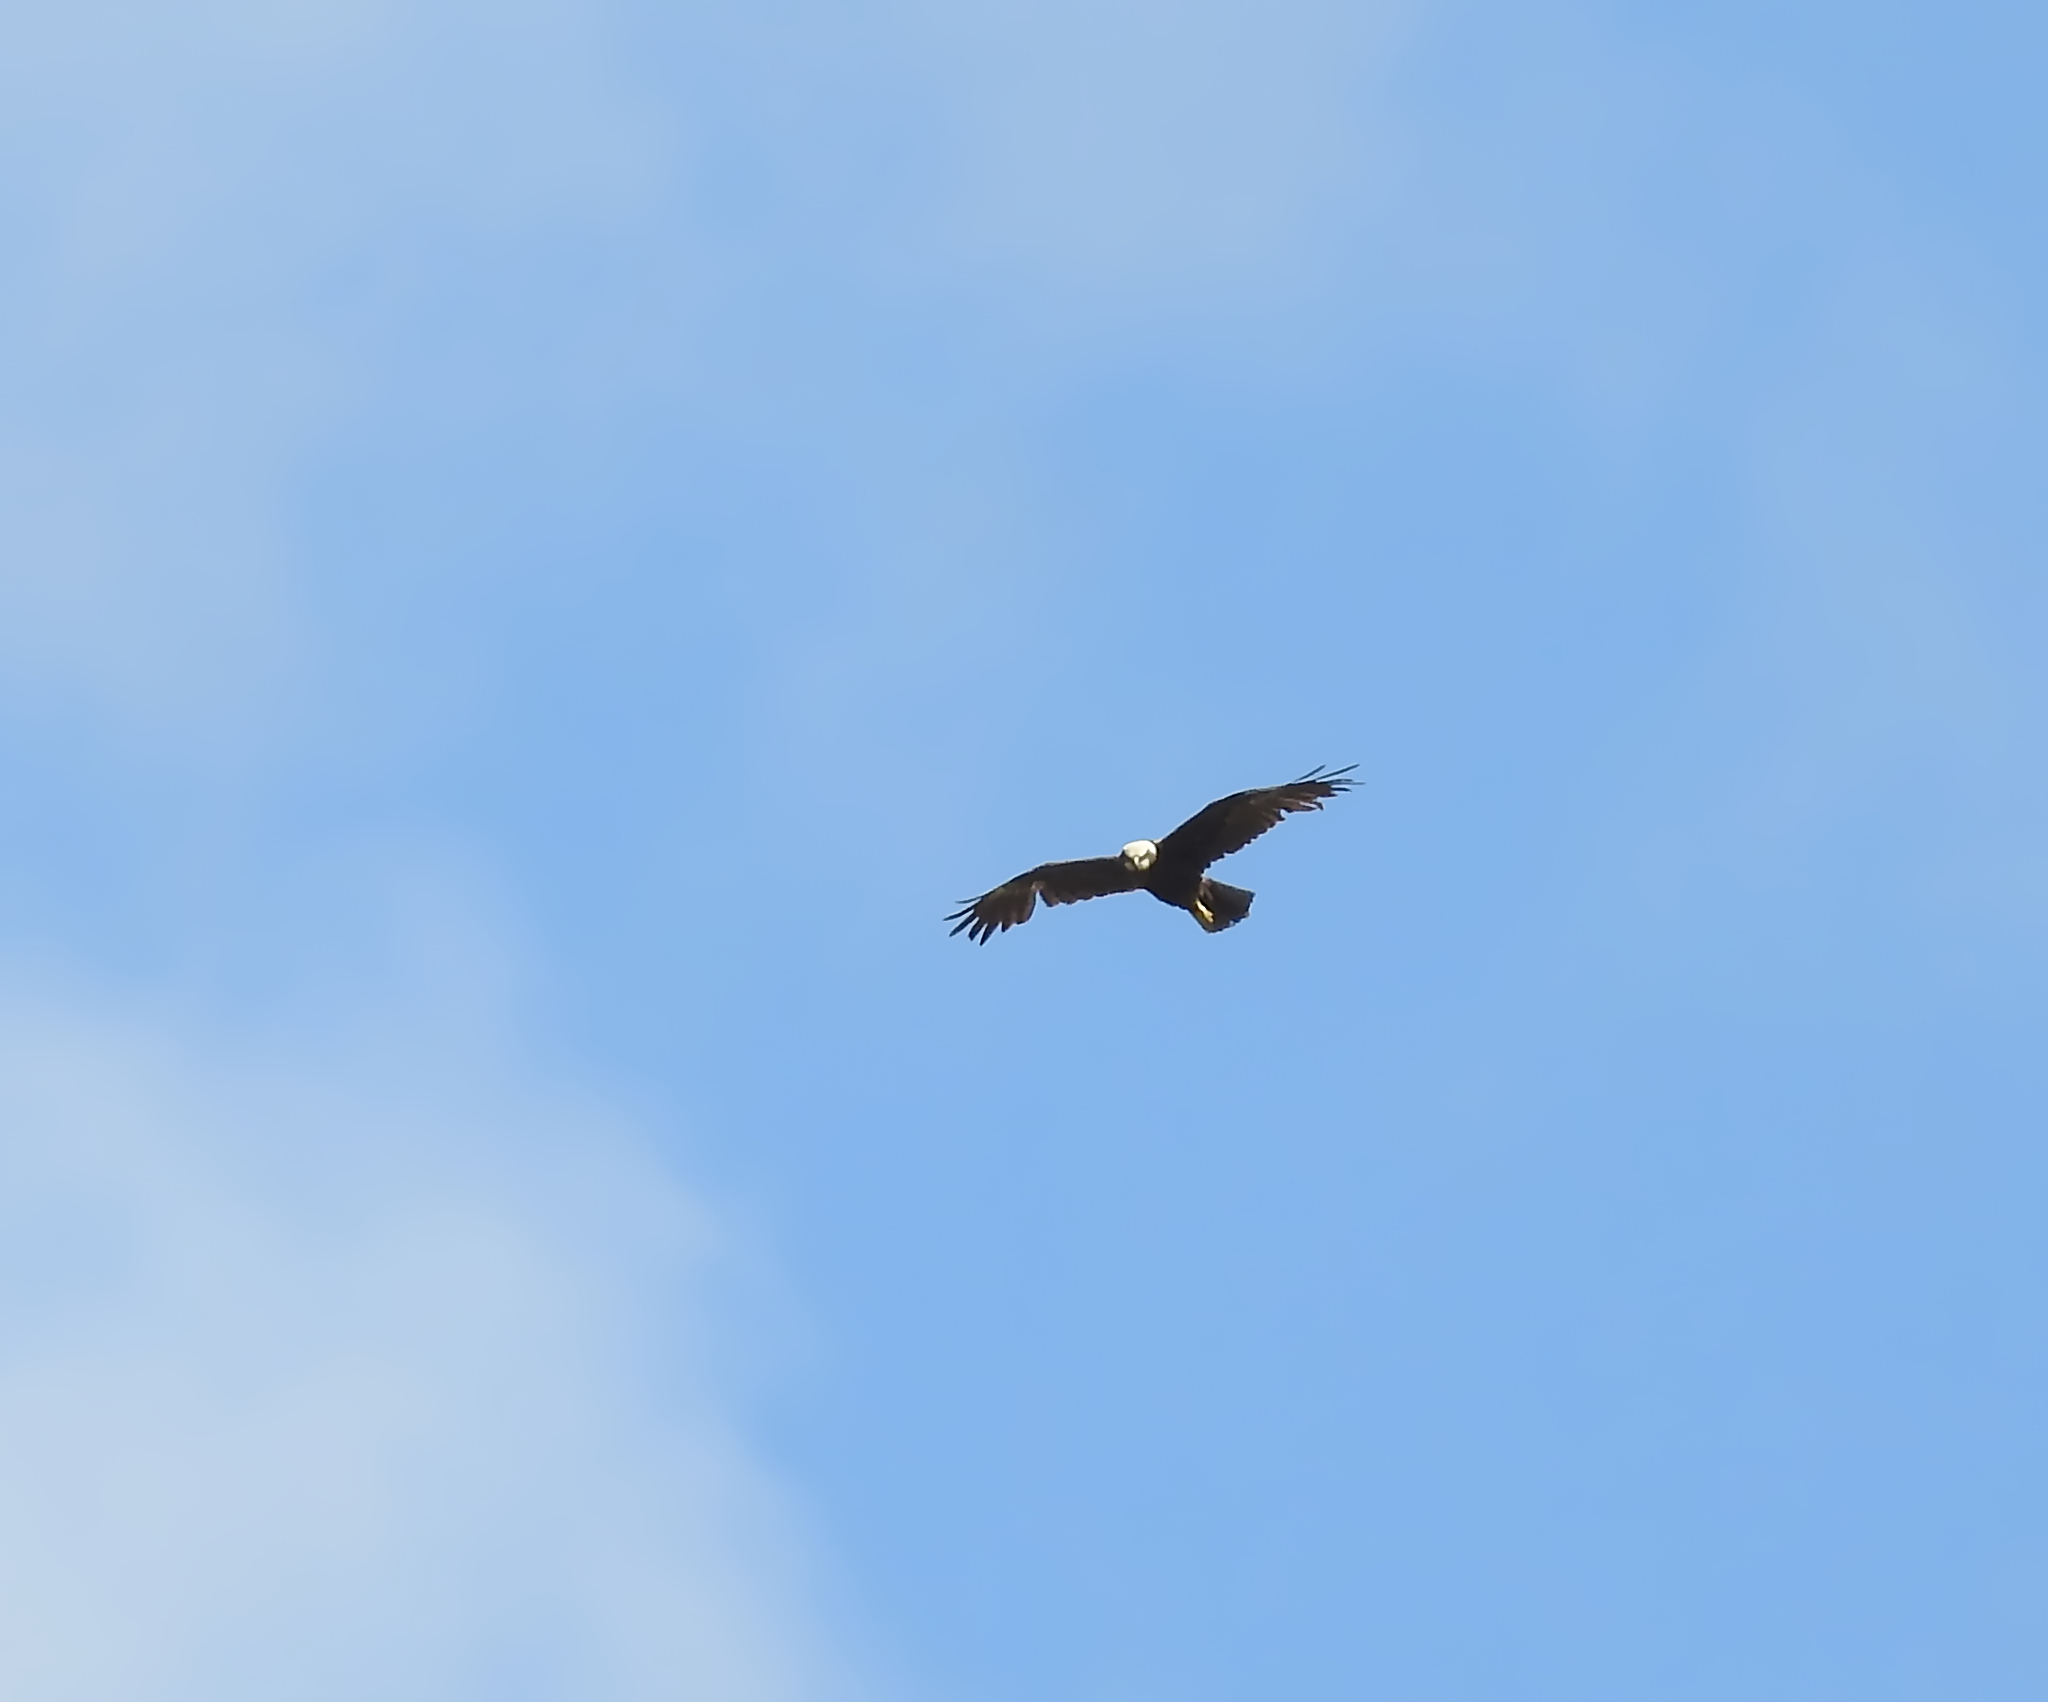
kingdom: Animalia
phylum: Chordata
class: Aves
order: Accipitriformes
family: Accipitridae
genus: Circus
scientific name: Circus aeruginosus
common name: Western marsh harrier
